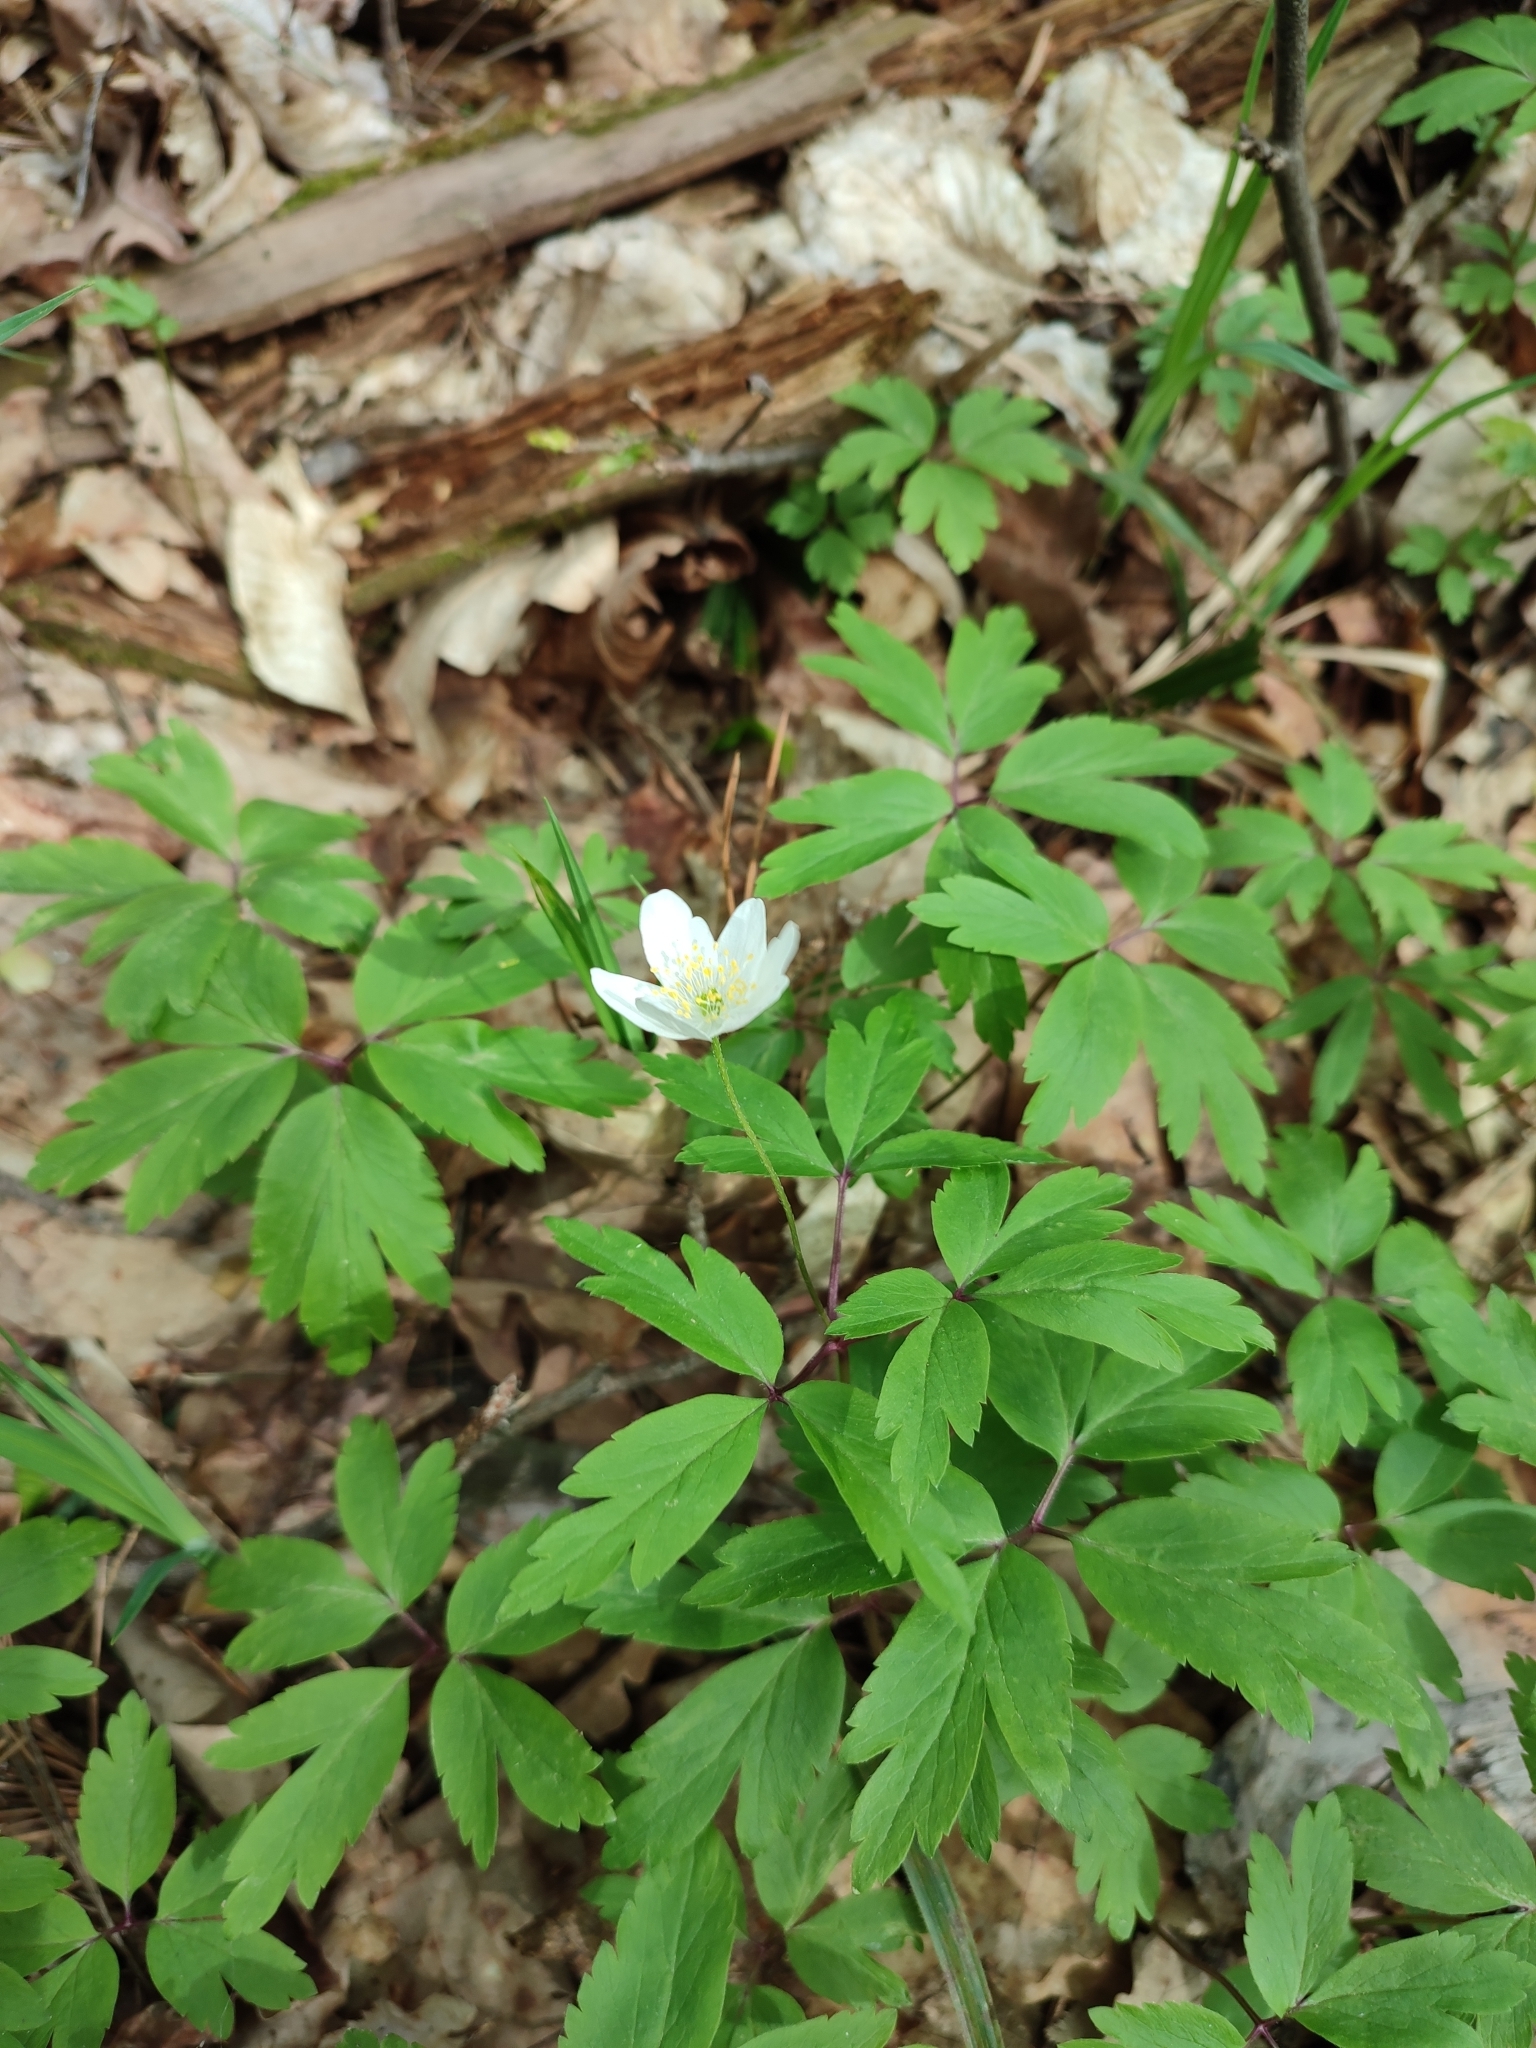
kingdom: Plantae
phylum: Tracheophyta
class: Magnoliopsida
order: Ranunculales
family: Ranunculaceae
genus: Anemone
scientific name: Anemone nemorosa
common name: Wood anemone
